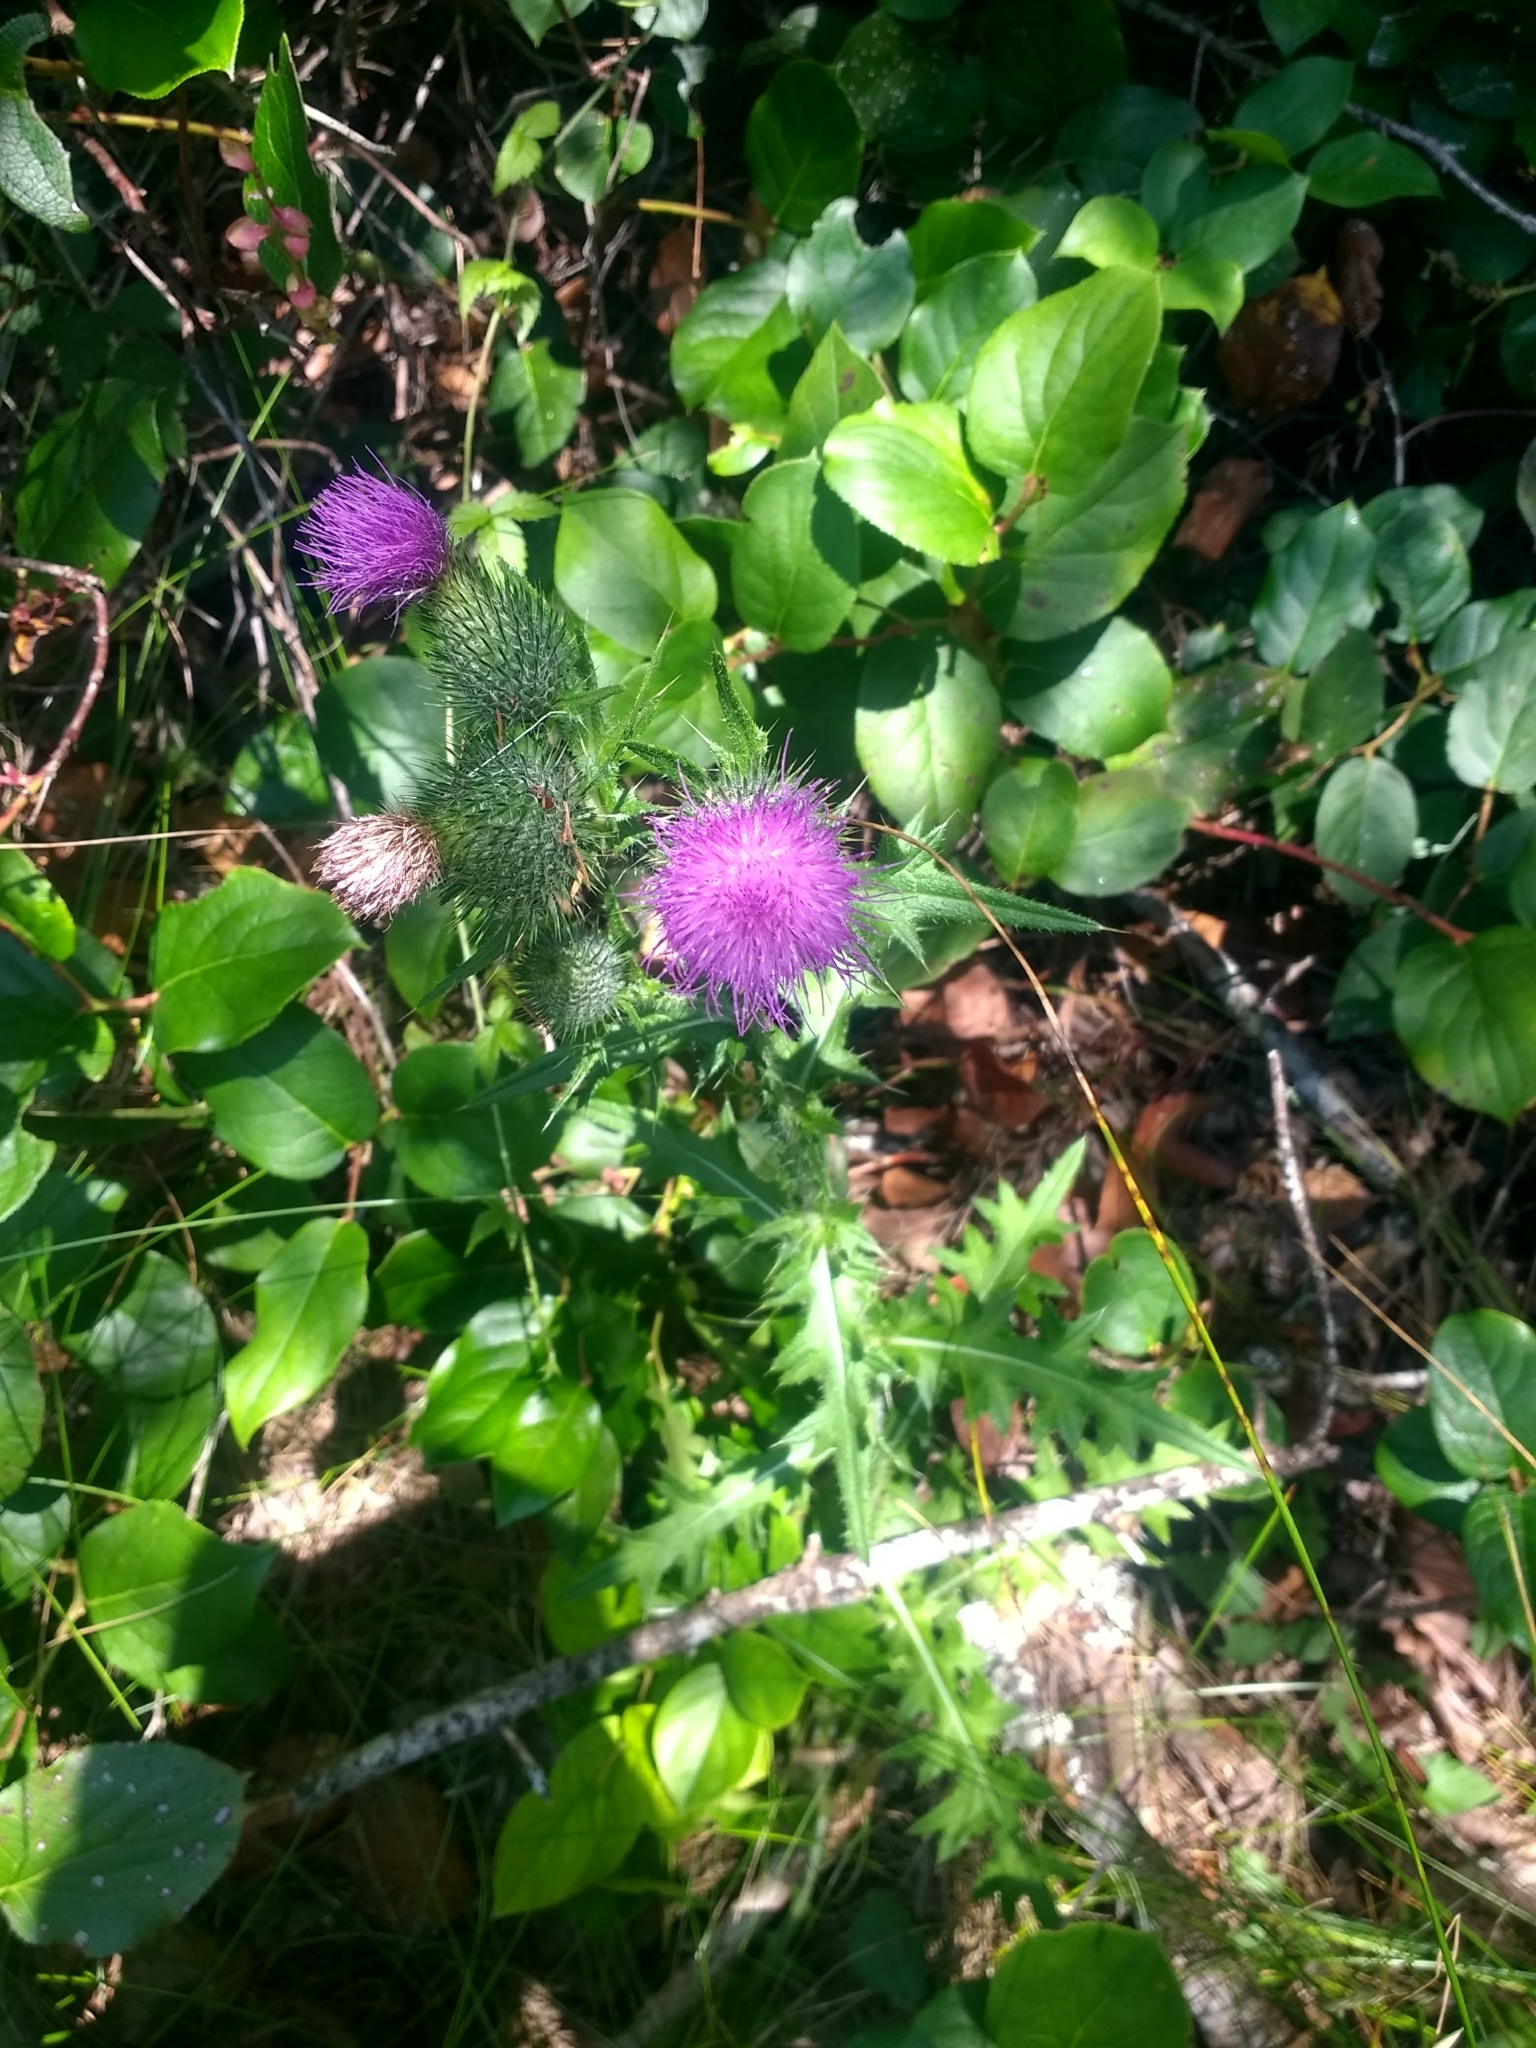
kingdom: Plantae
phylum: Tracheophyta
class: Magnoliopsida
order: Asterales
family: Asteraceae
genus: Cirsium
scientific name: Cirsium vulgare
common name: Bull thistle
